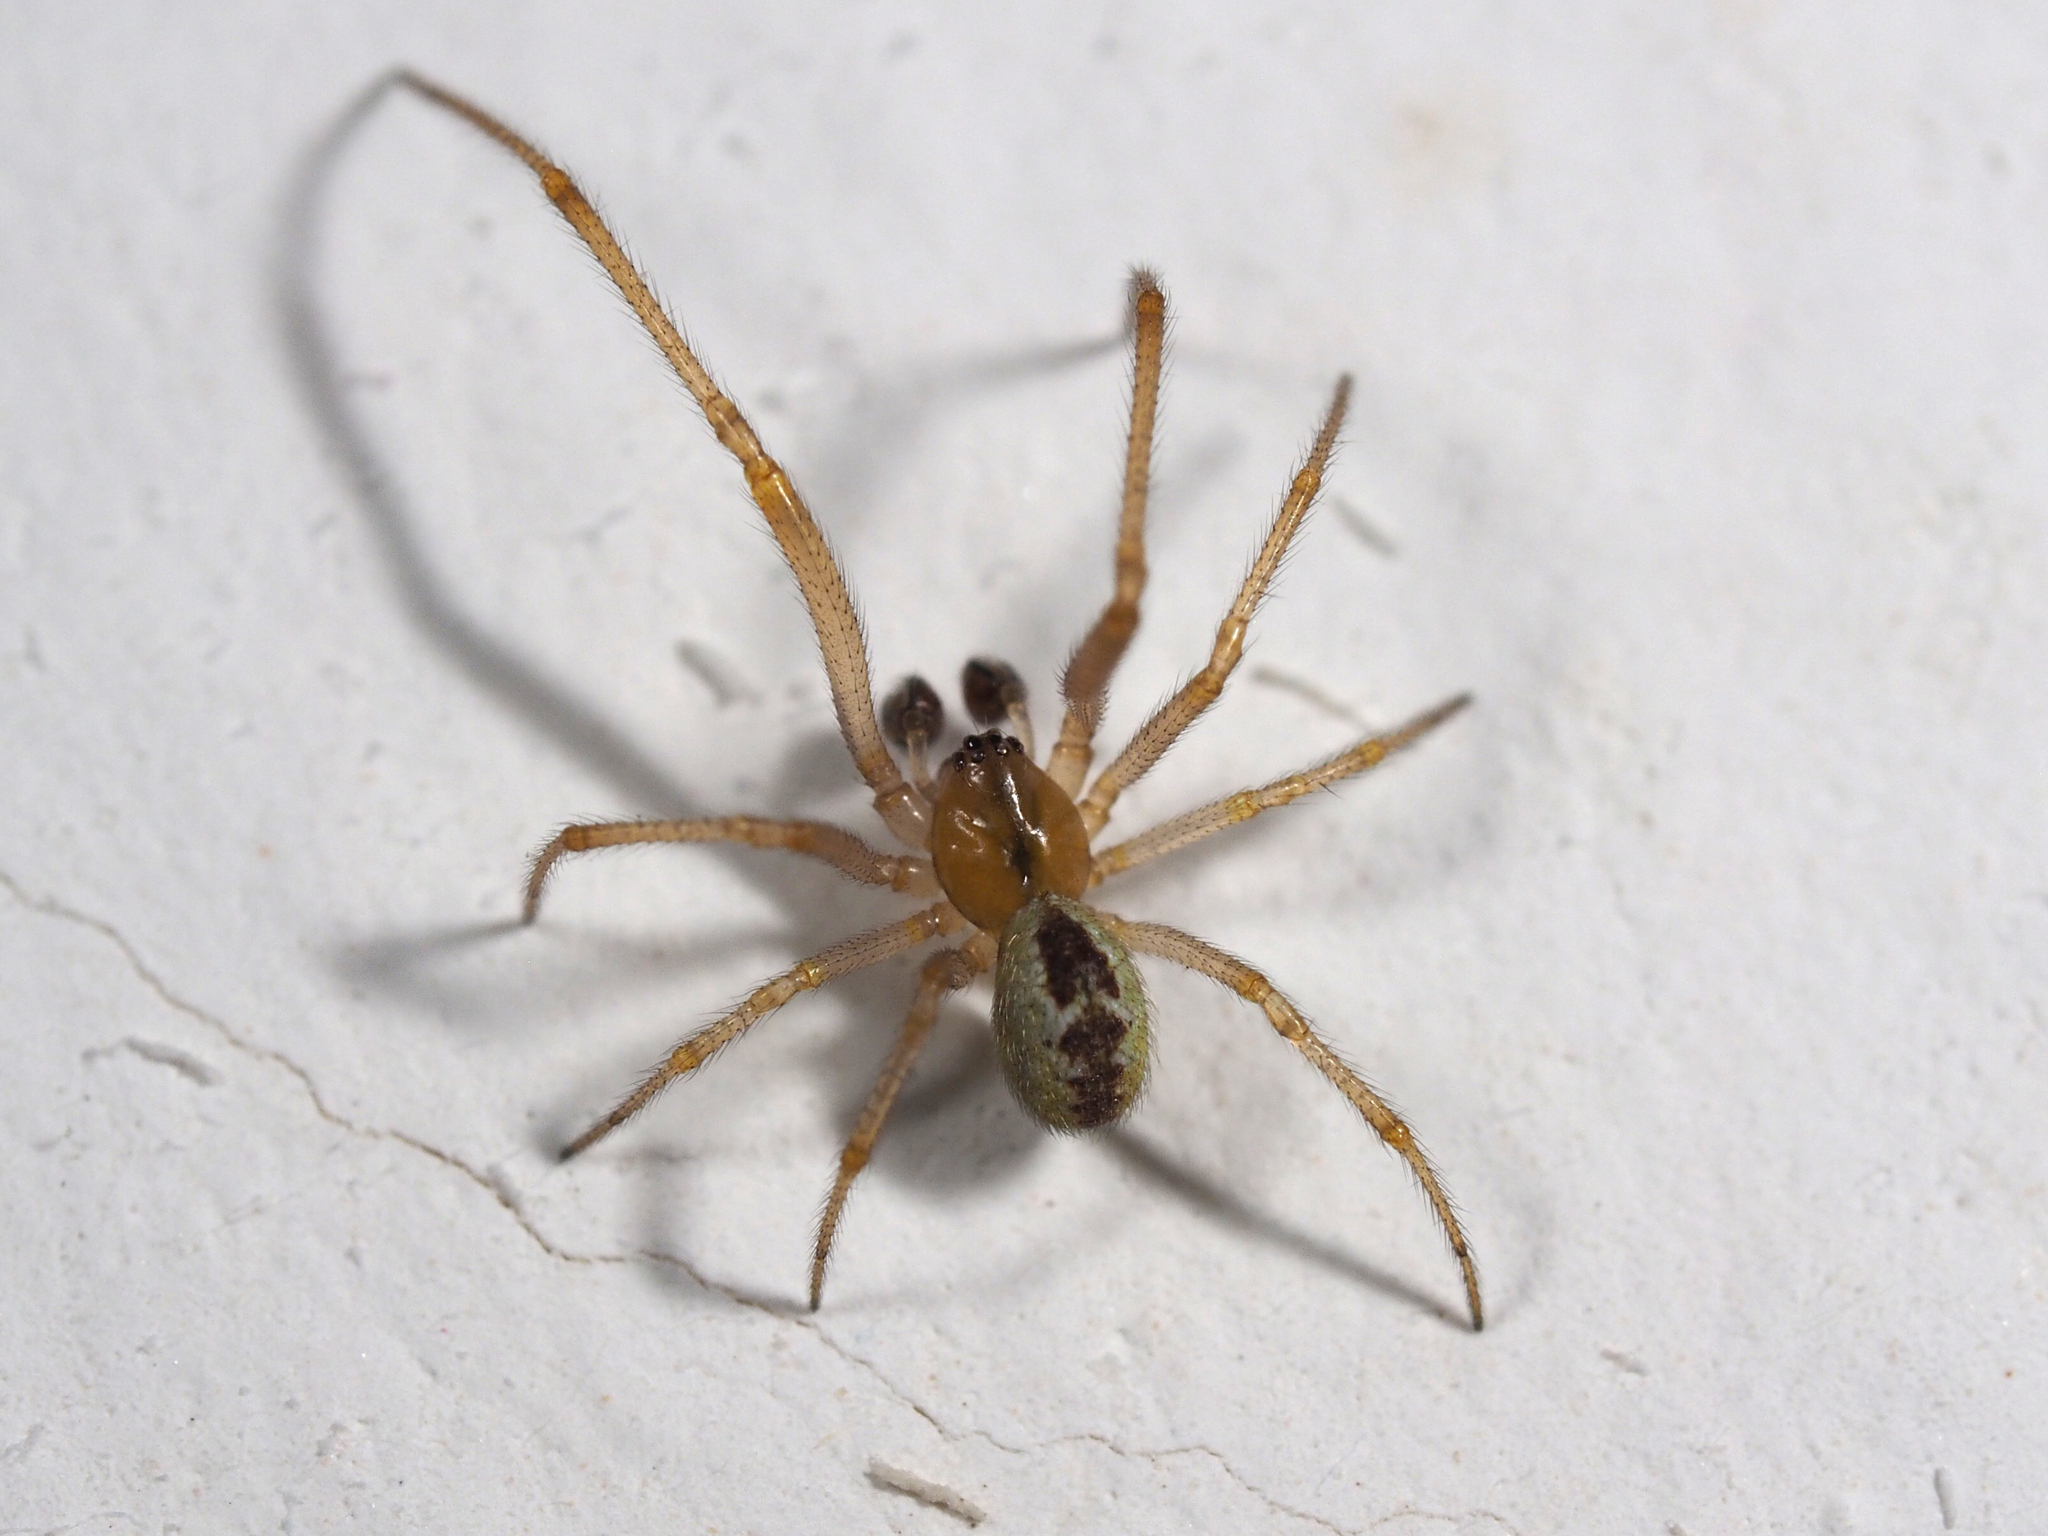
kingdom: Animalia
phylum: Arthropoda
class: Arachnida
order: Araneae
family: Theridiidae
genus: Kochiura
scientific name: Kochiura aulica
